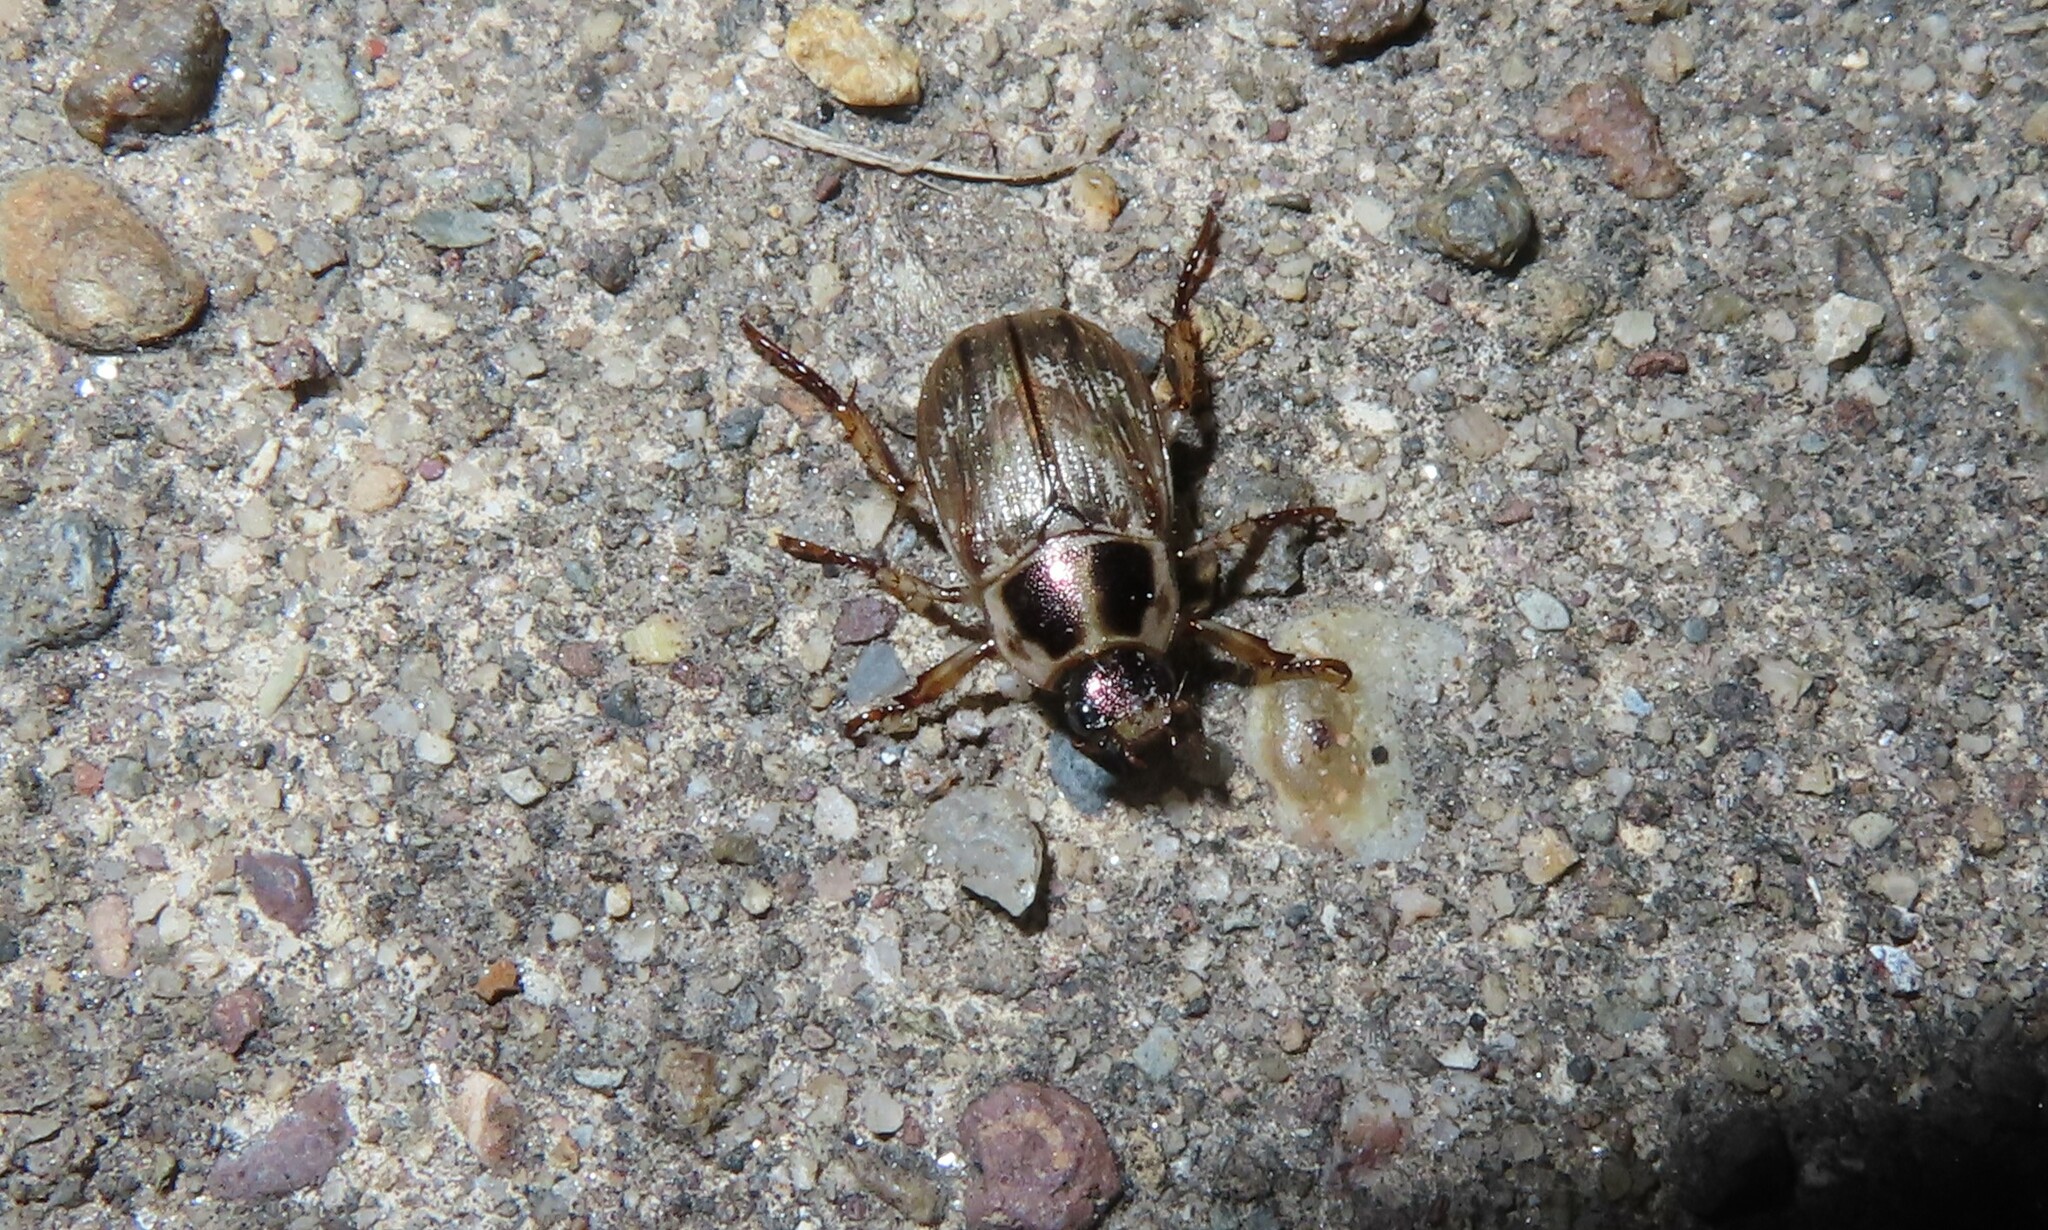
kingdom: Animalia
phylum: Arthropoda
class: Insecta
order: Coleoptera
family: Scarabaeidae
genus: Exomala
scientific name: Exomala orientalis
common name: Oriental beetle
